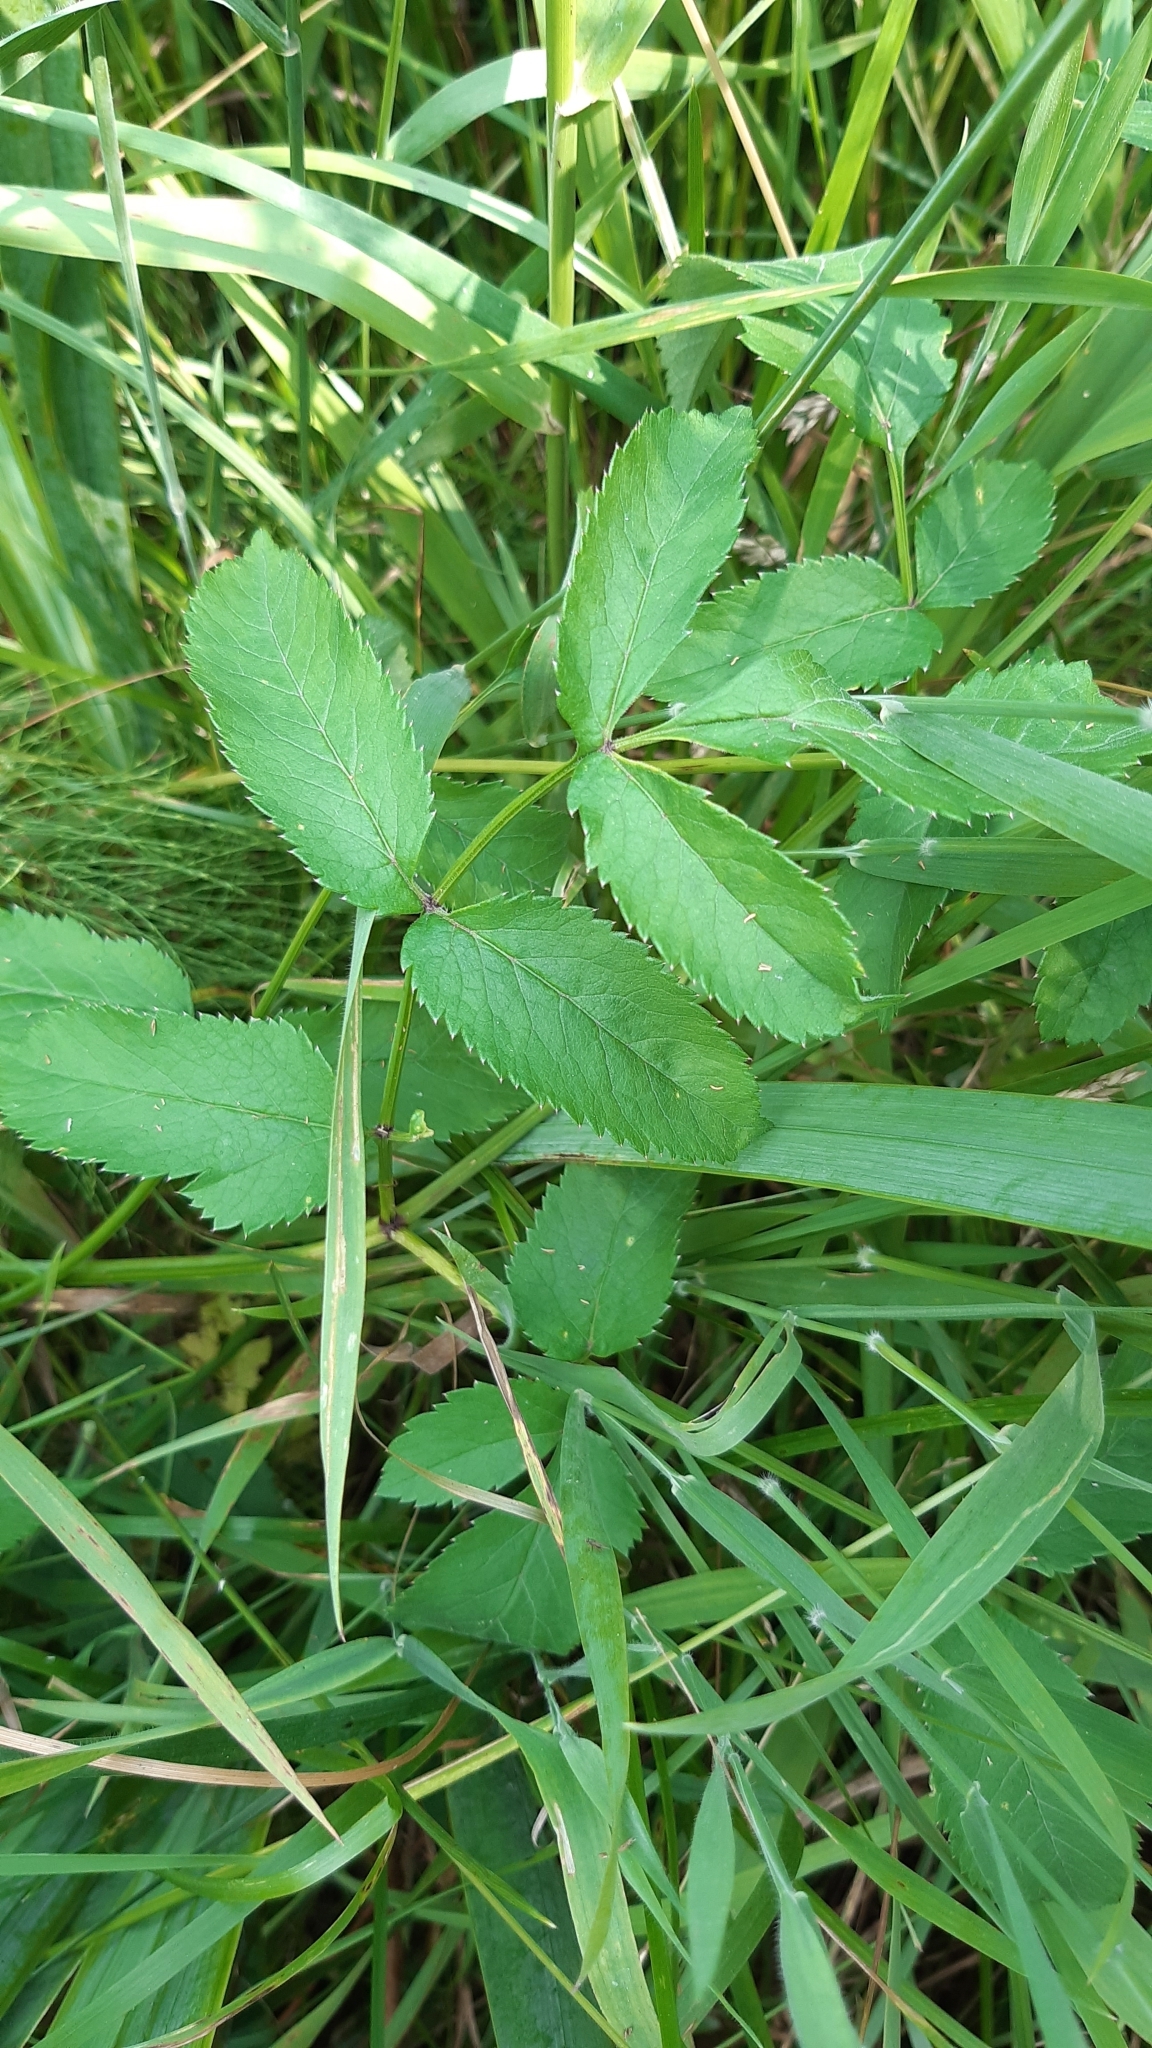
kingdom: Plantae
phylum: Tracheophyta
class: Magnoliopsida
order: Apiales
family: Apiaceae
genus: Angelica
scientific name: Angelica sylvestris
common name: Wild angelica
